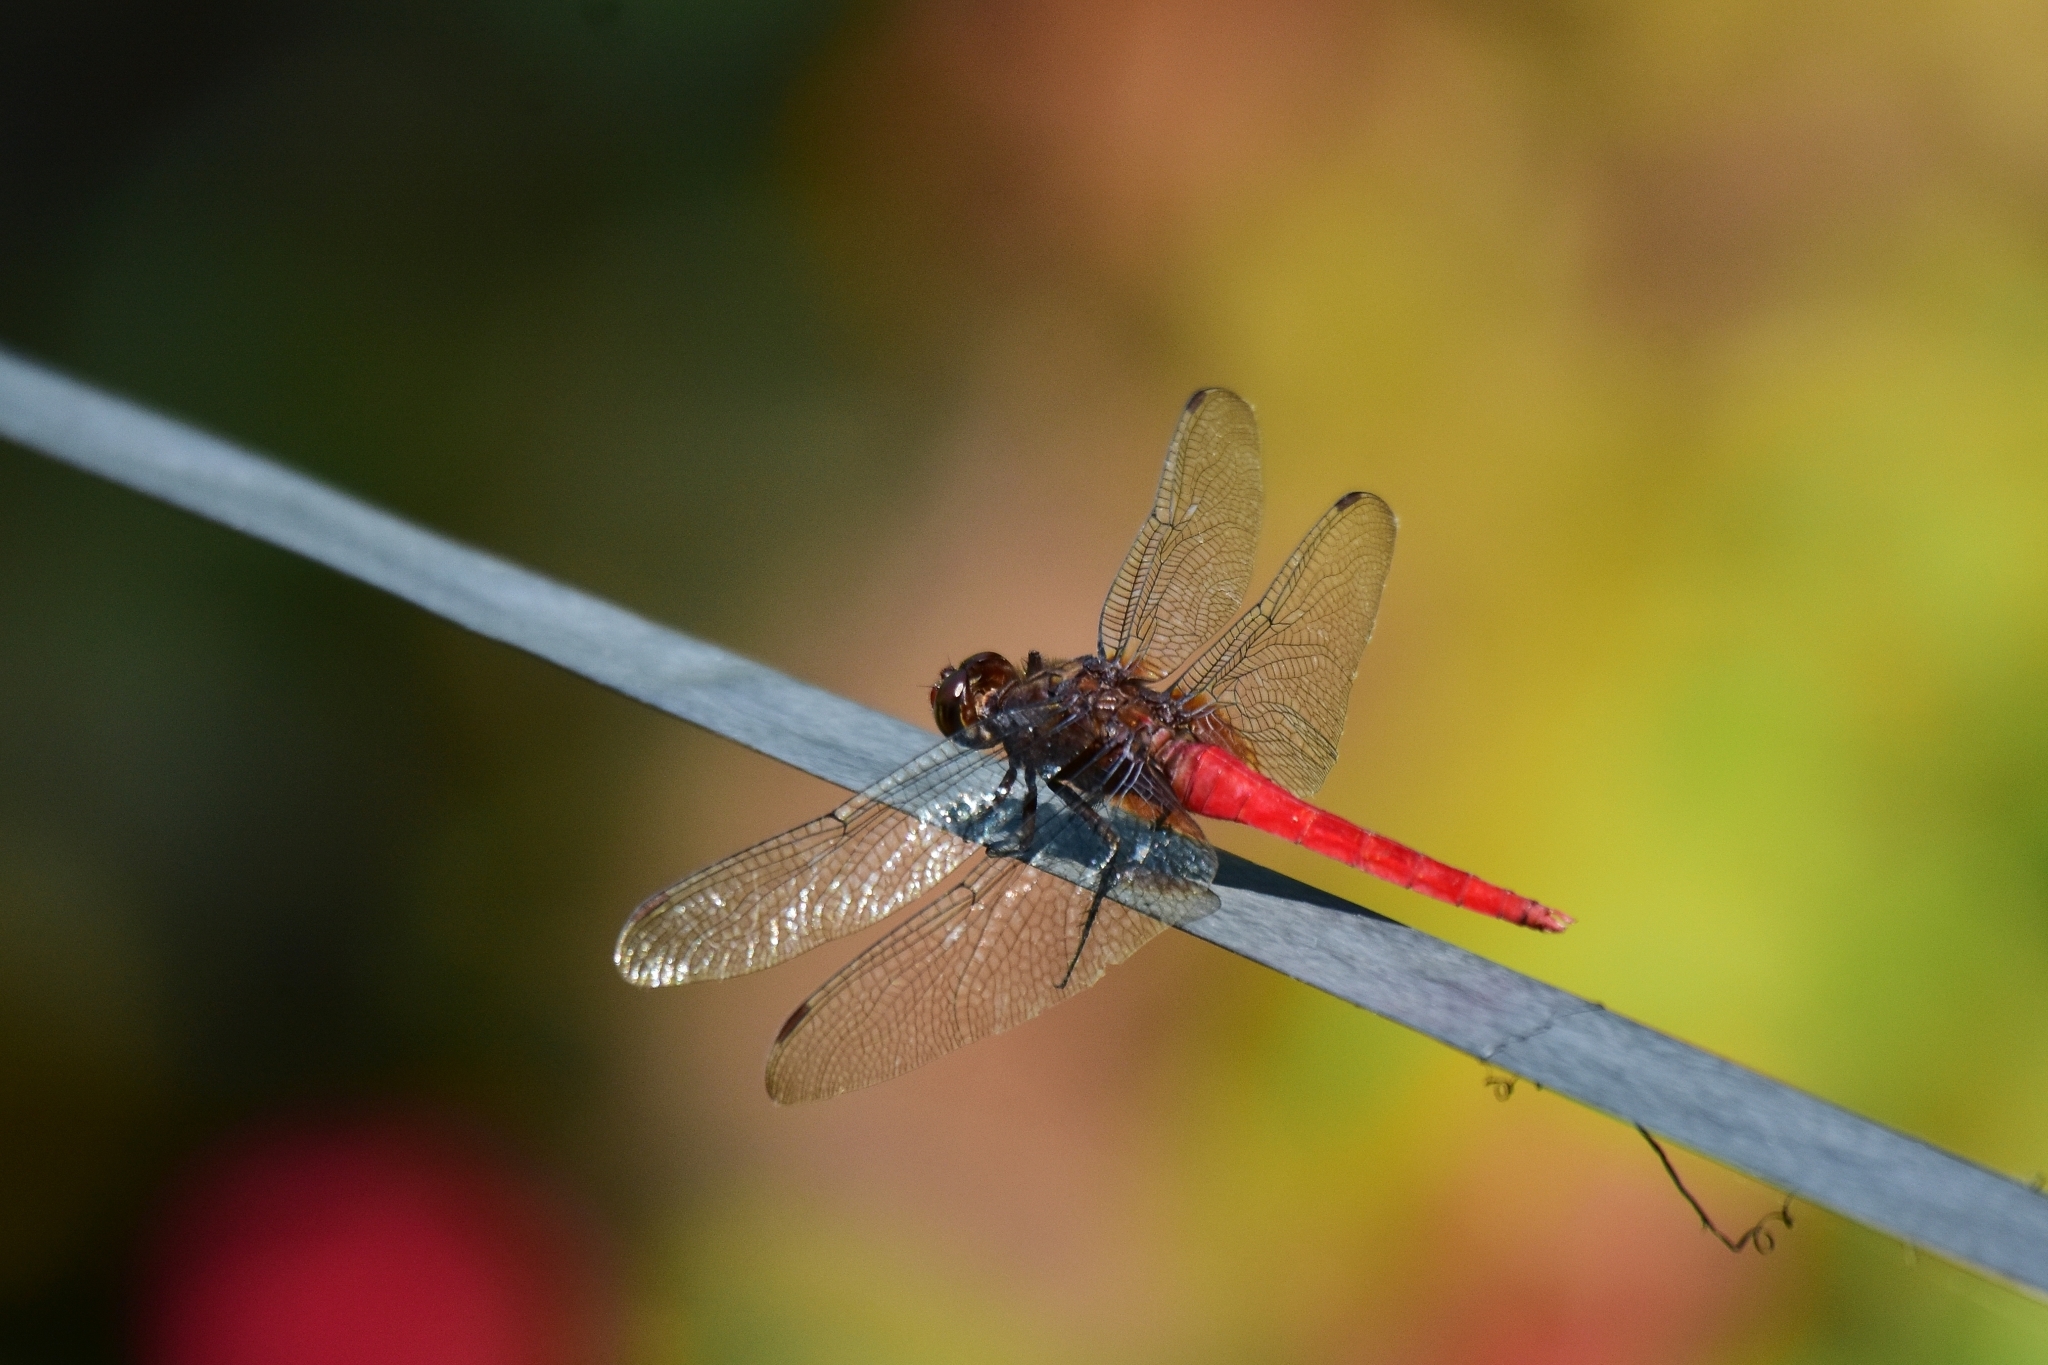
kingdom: Animalia
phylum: Arthropoda
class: Insecta
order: Odonata
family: Libellulidae
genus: Orthetrum
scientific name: Orthetrum chrysis
